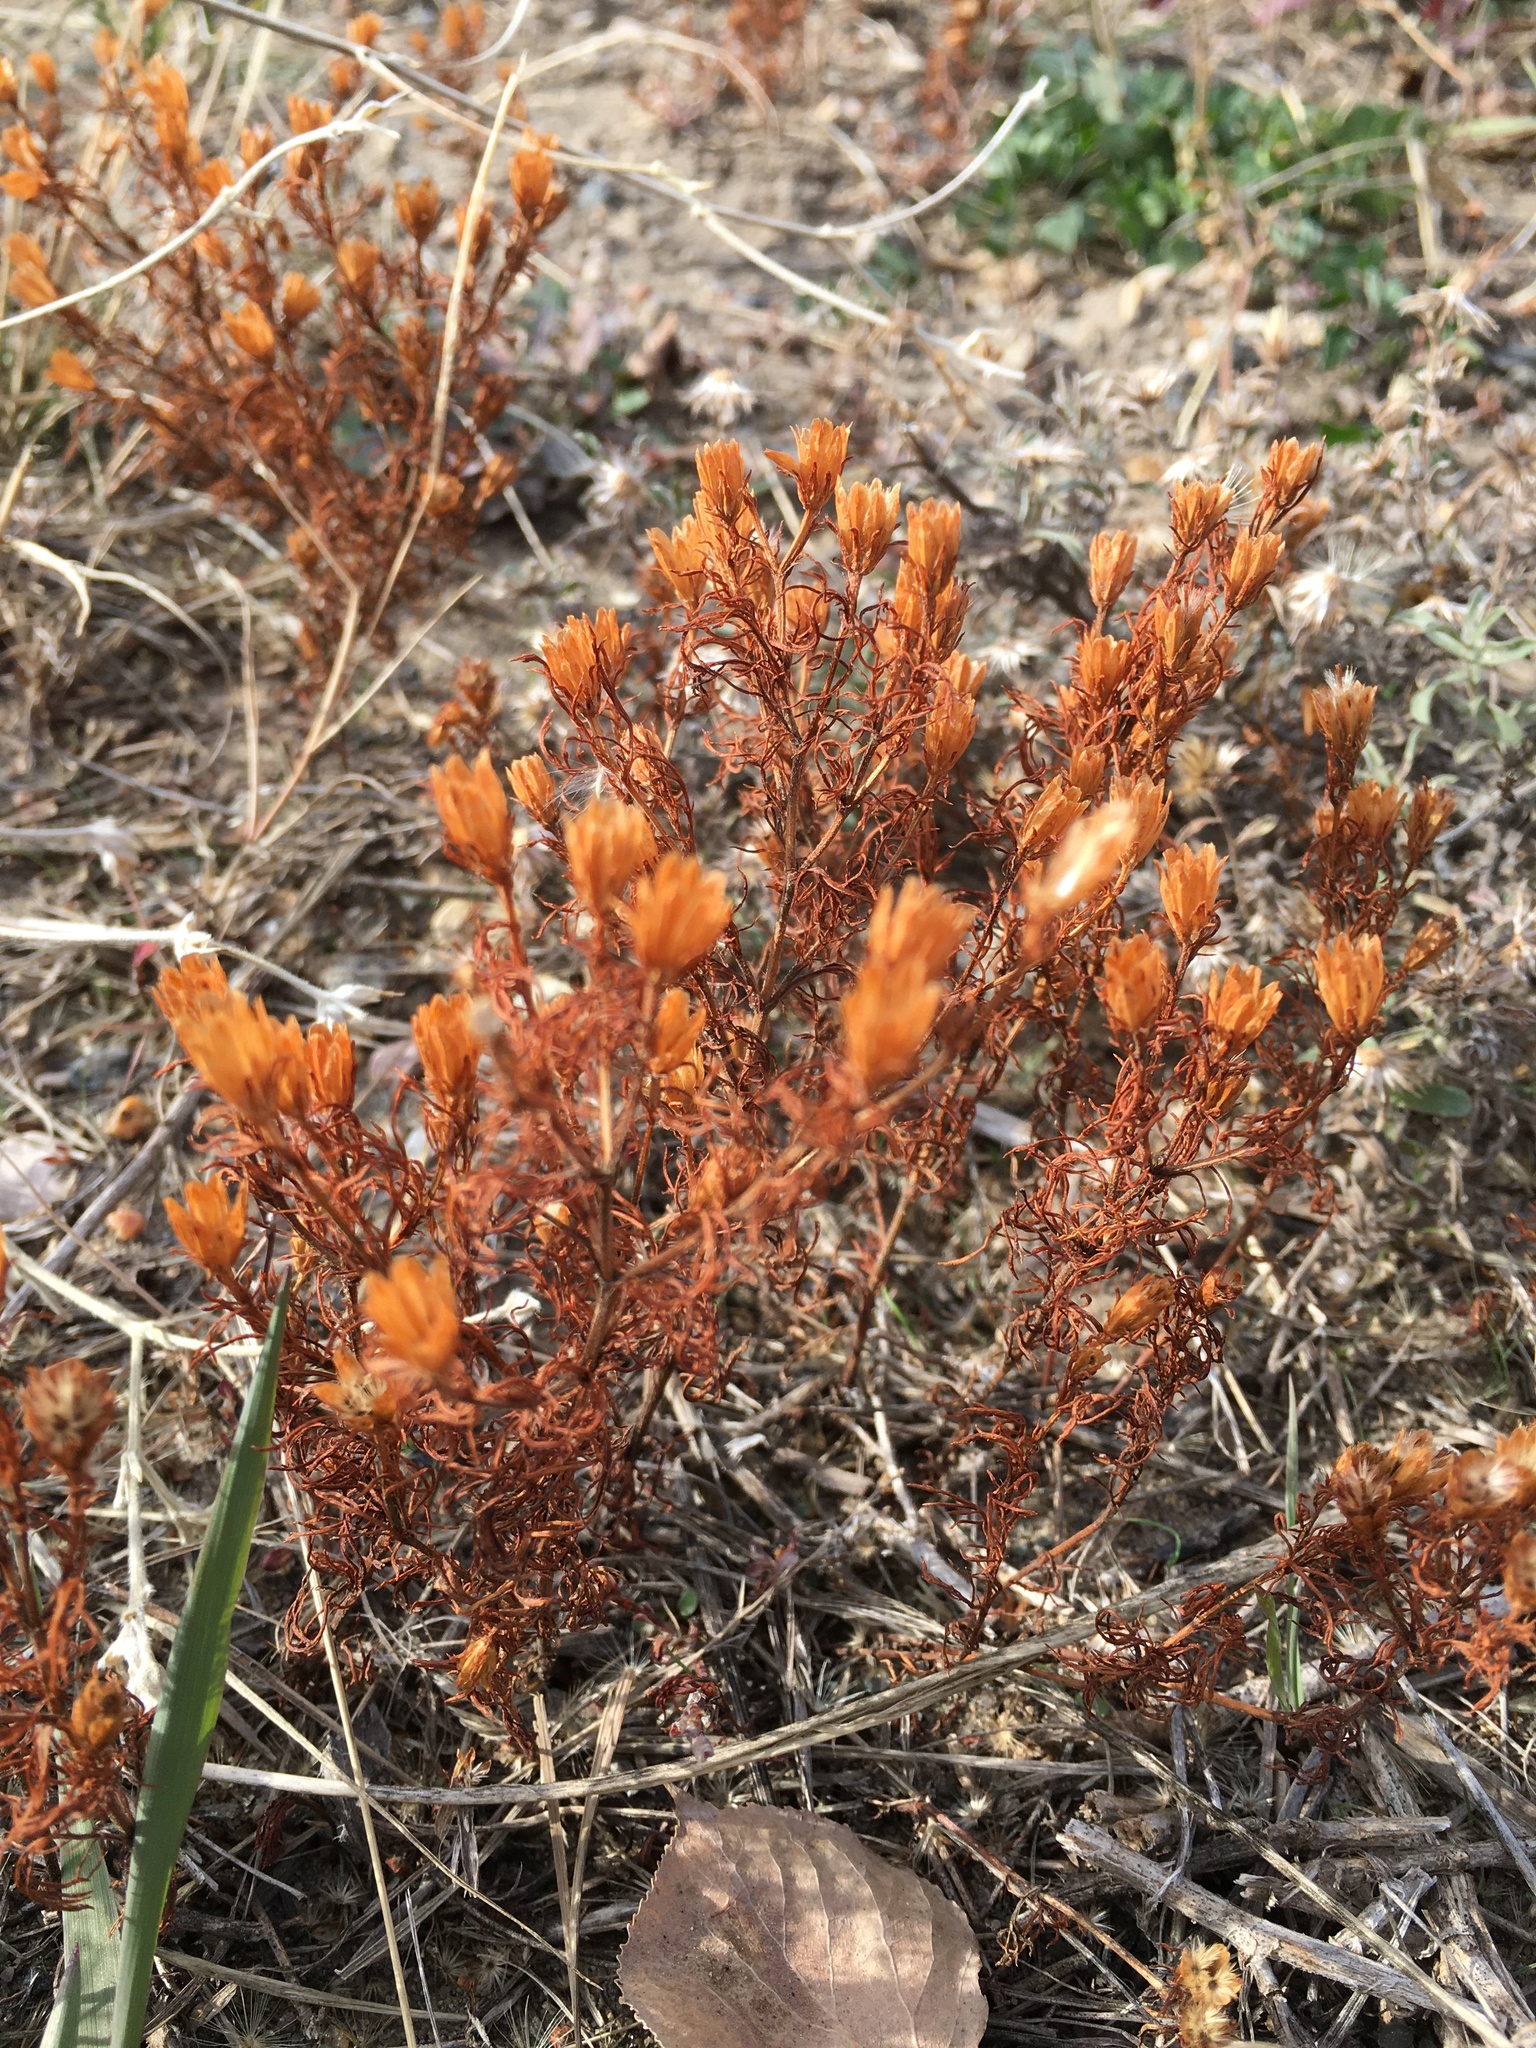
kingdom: Plantae
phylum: Tracheophyta
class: Magnoliopsida
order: Asterales
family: Asteraceae
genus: Dyssodia
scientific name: Dyssodia papposa
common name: Dogweed
